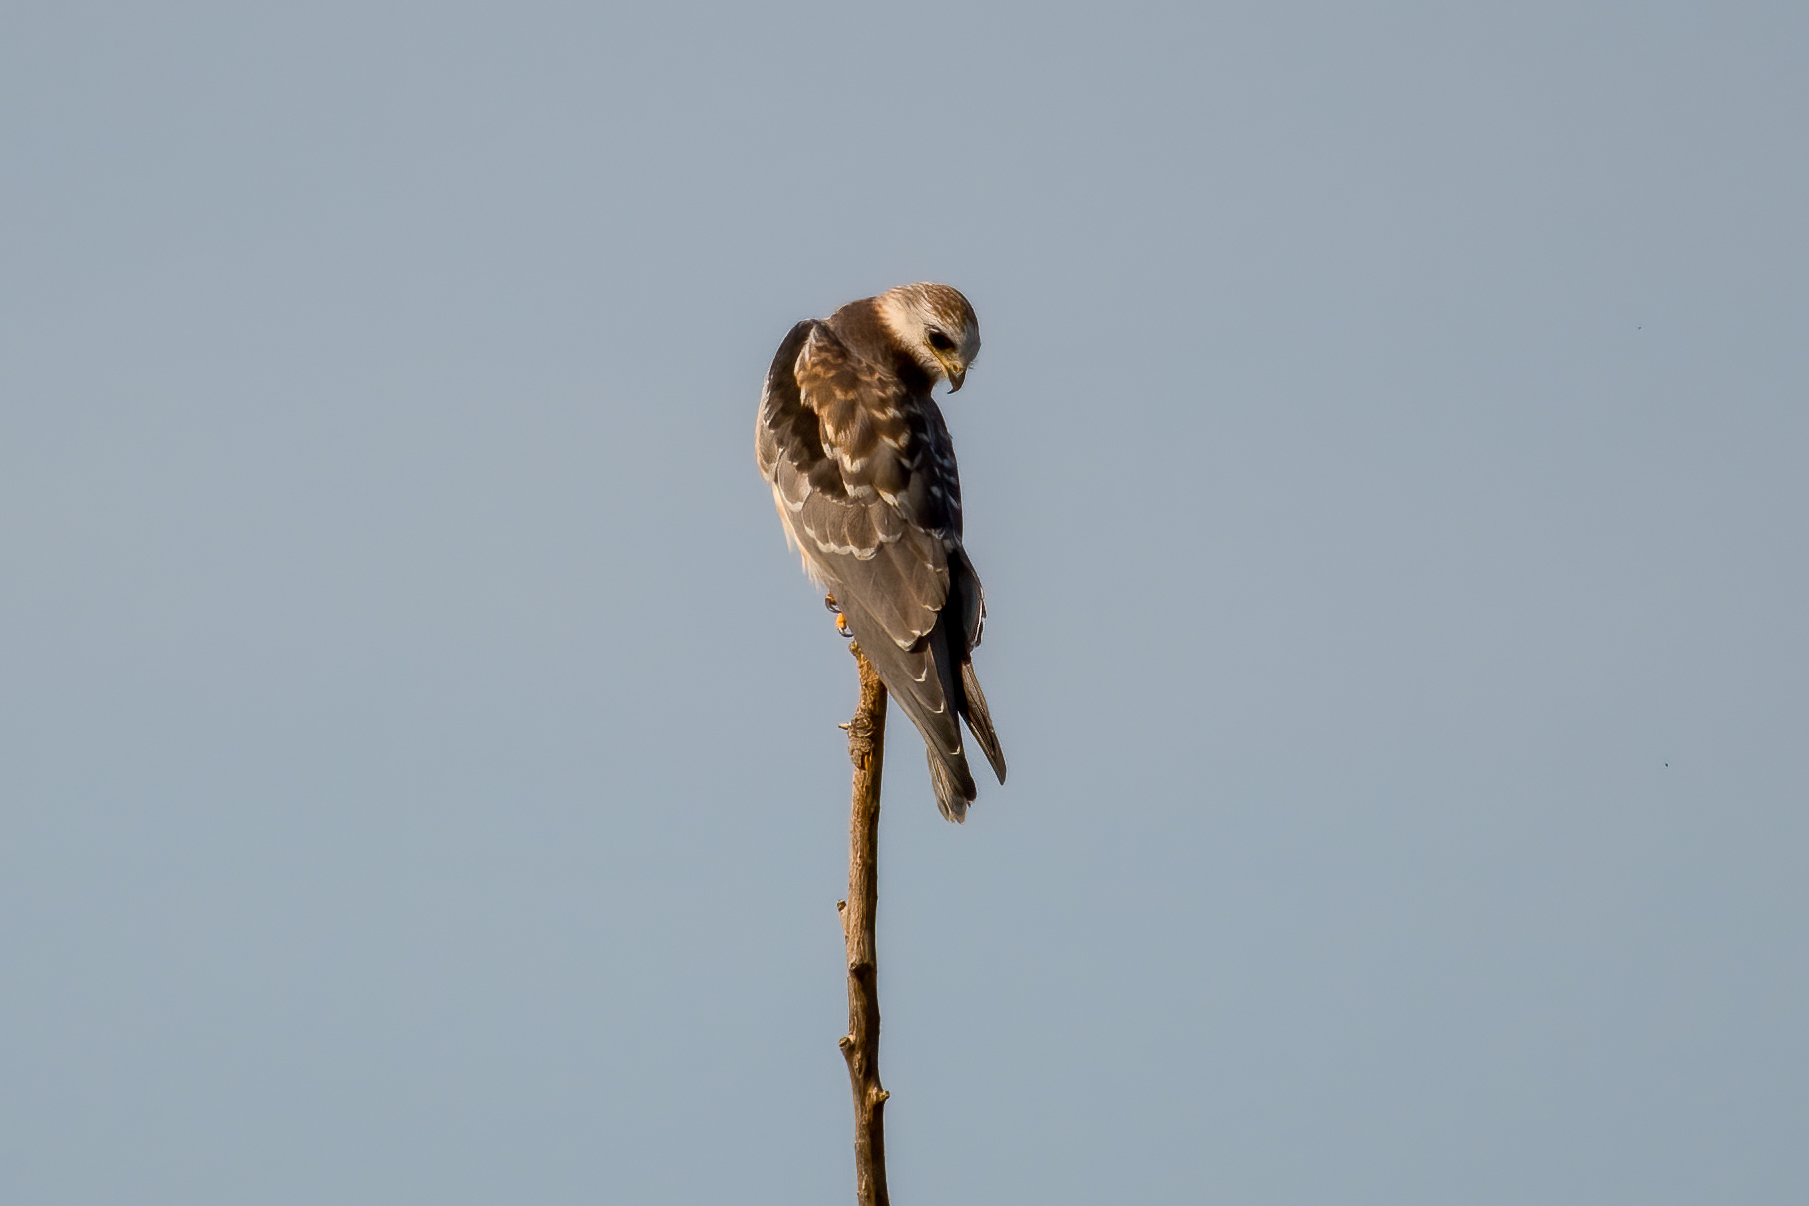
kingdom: Animalia
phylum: Chordata
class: Aves
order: Accipitriformes
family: Accipitridae
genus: Elanus
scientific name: Elanus leucurus
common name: White-tailed kite
